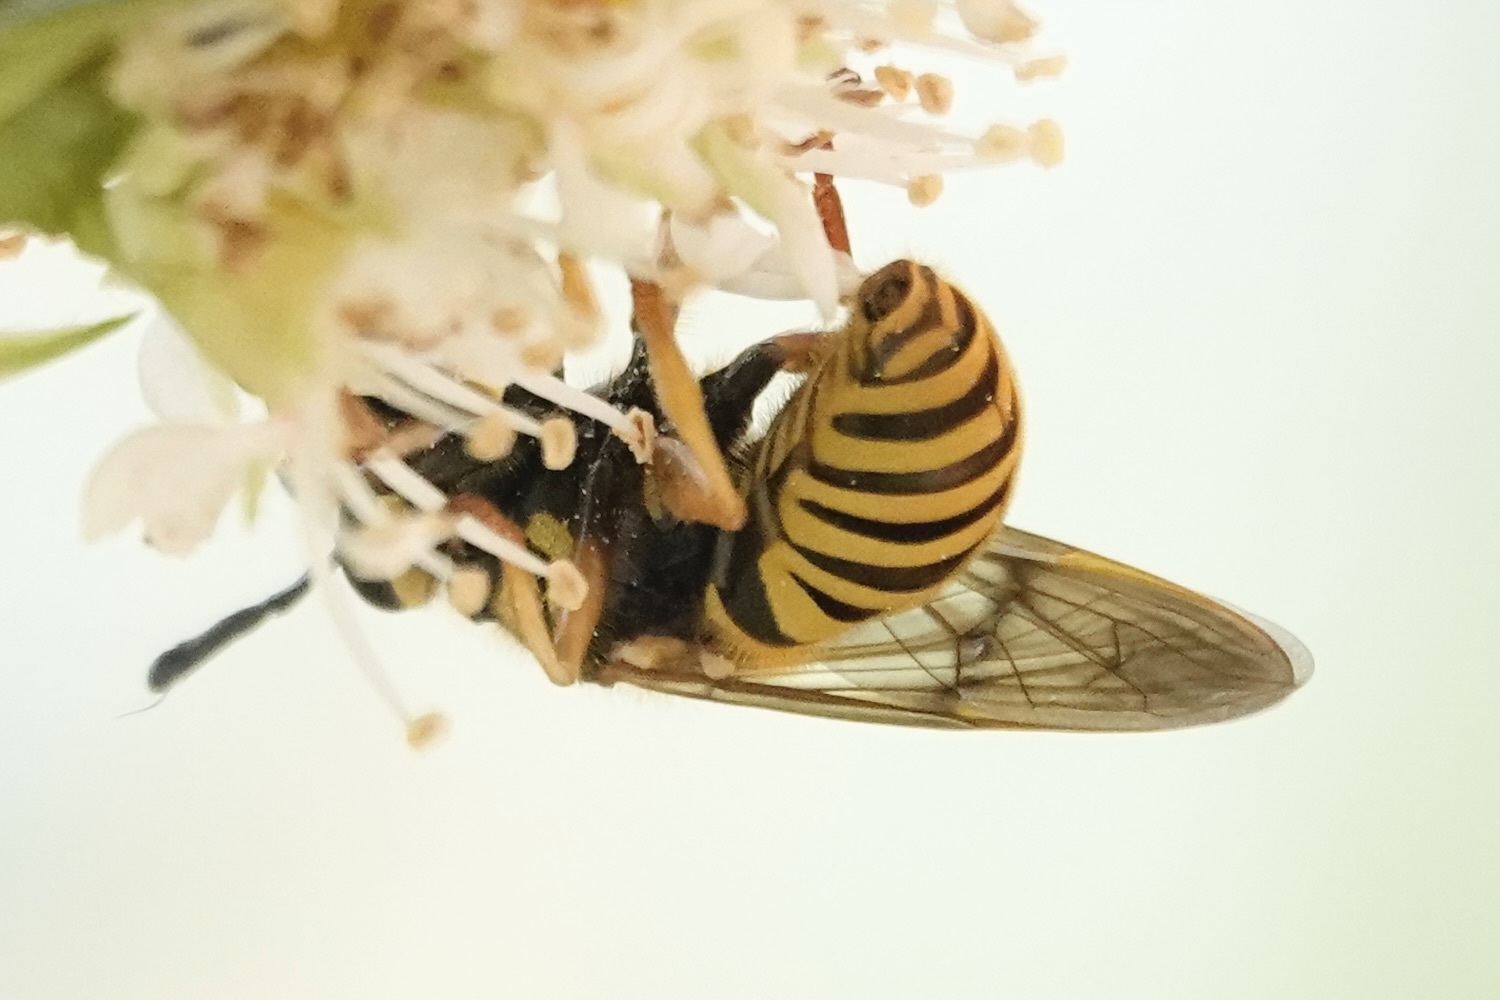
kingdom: Animalia
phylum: Arthropoda
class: Insecta
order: Diptera
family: Syrphidae
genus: Sphecomyia
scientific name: Sphecomyia vittata
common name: Long-horned yellowjacket fly
